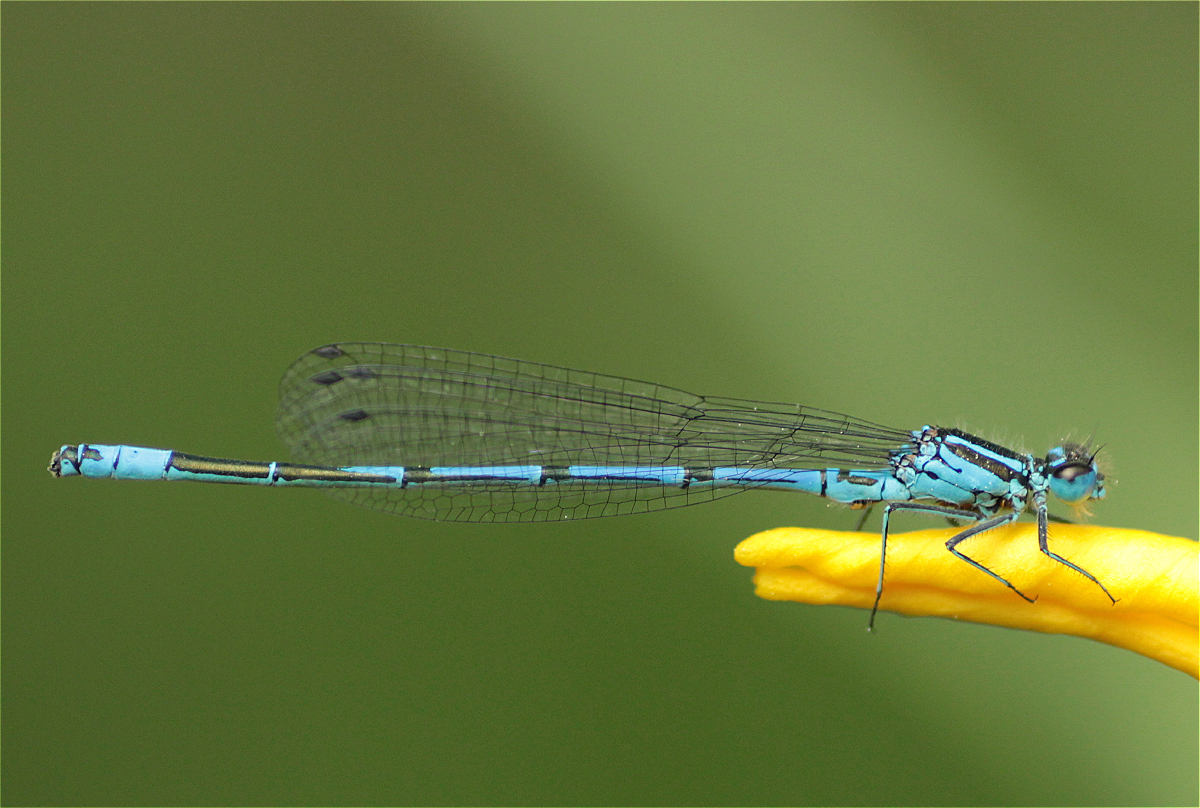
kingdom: Animalia
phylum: Arthropoda
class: Insecta
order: Odonata
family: Coenagrionidae
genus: Coenagrion
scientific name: Coenagrion puella
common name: Azure damselfly
